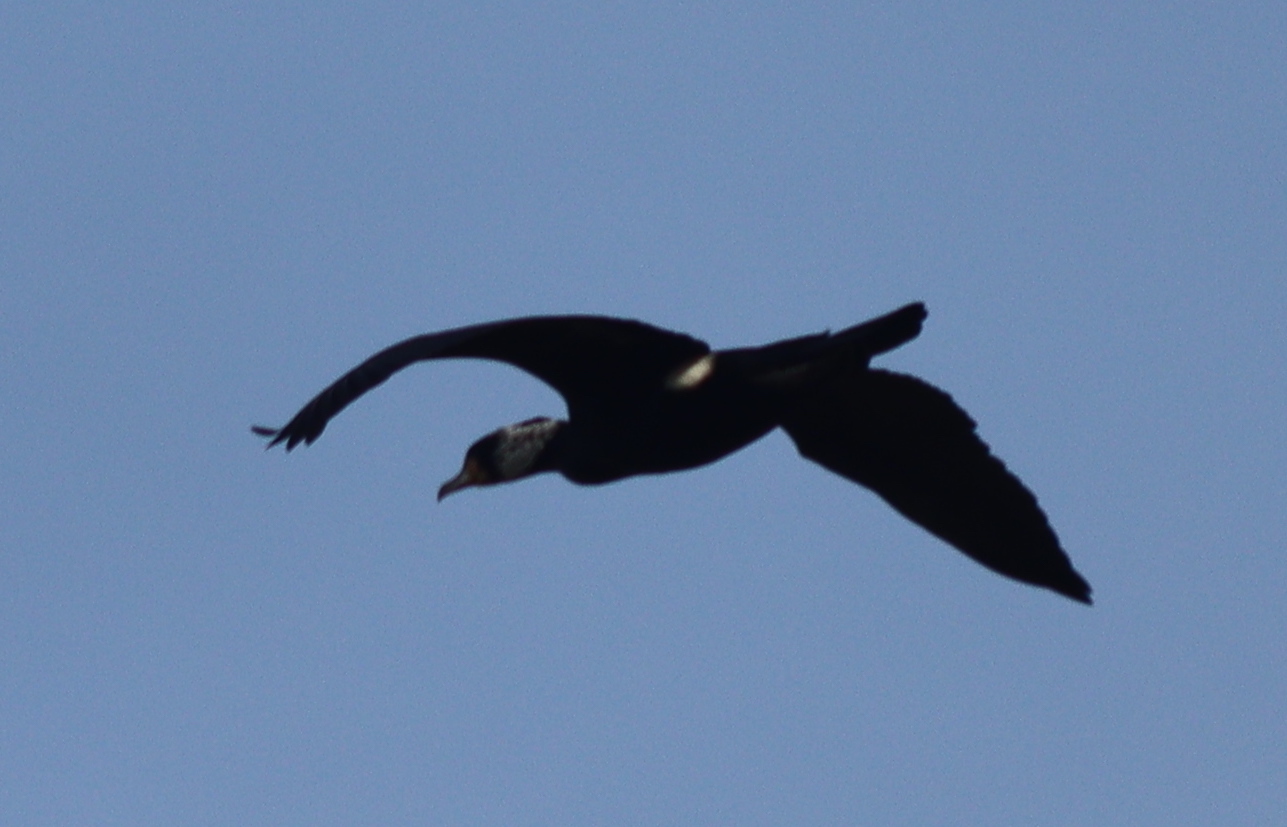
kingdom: Animalia
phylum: Chordata
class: Aves
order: Suliformes
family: Phalacrocoracidae
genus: Phalacrocorax
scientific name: Phalacrocorax carbo
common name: Great cormorant
